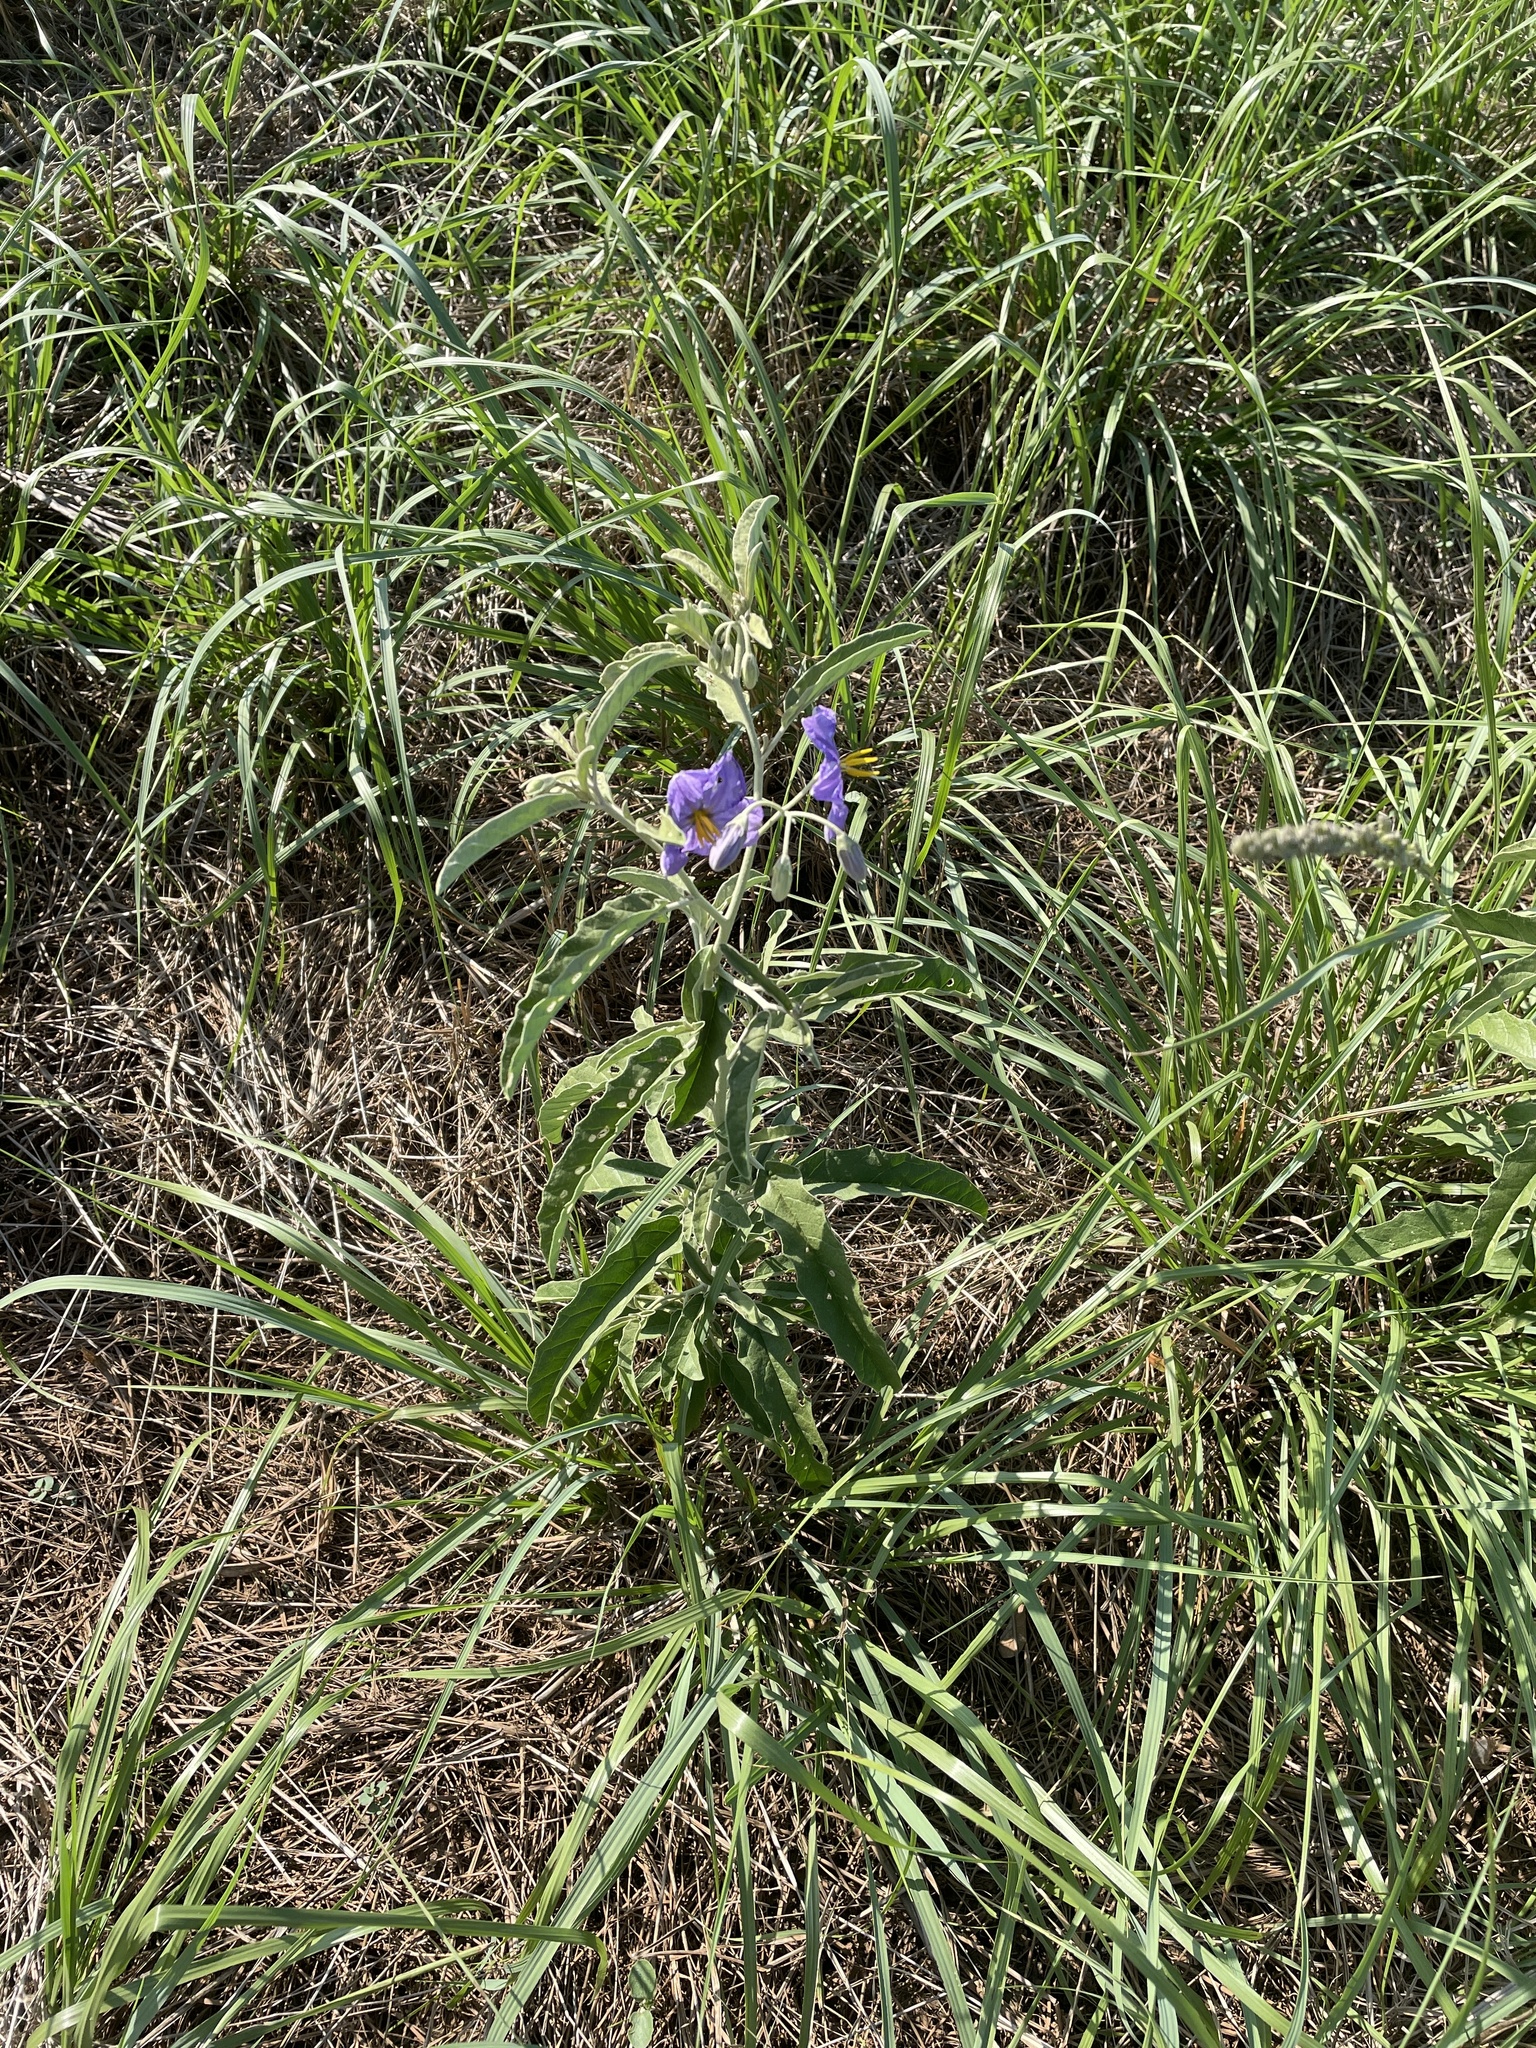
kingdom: Plantae
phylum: Tracheophyta
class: Magnoliopsida
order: Solanales
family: Solanaceae
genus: Solanum
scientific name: Solanum elaeagnifolium
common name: Silverleaf nightshade
